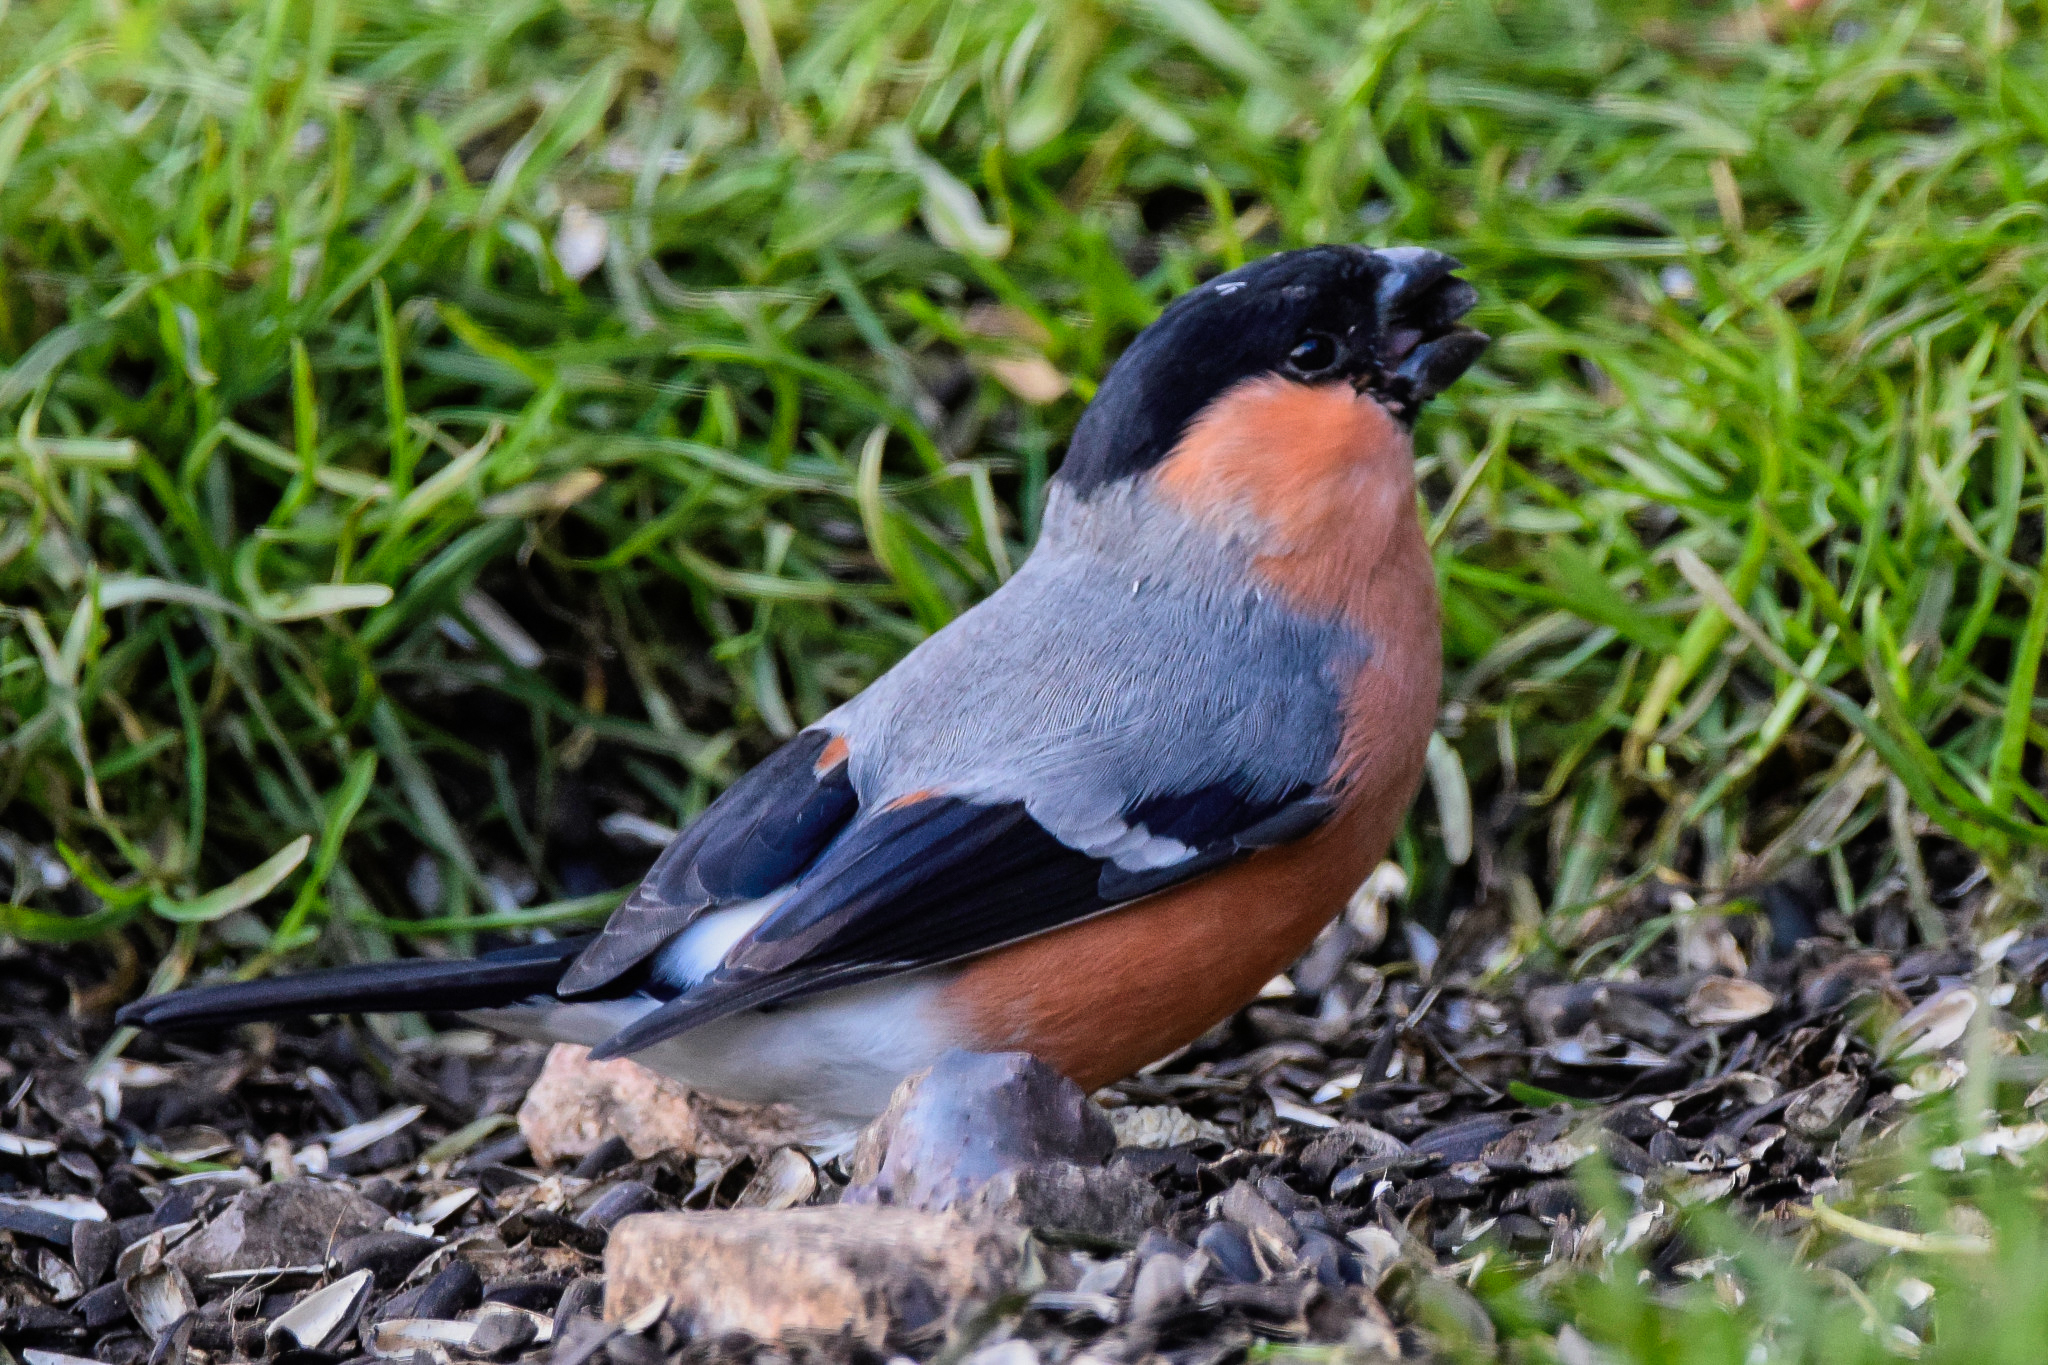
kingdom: Animalia
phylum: Chordata
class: Aves
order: Passeriformes
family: Fringillidae
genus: Pyrrhula
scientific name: Pyrrhula pyrrhula
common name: Eurasian bullfinch
